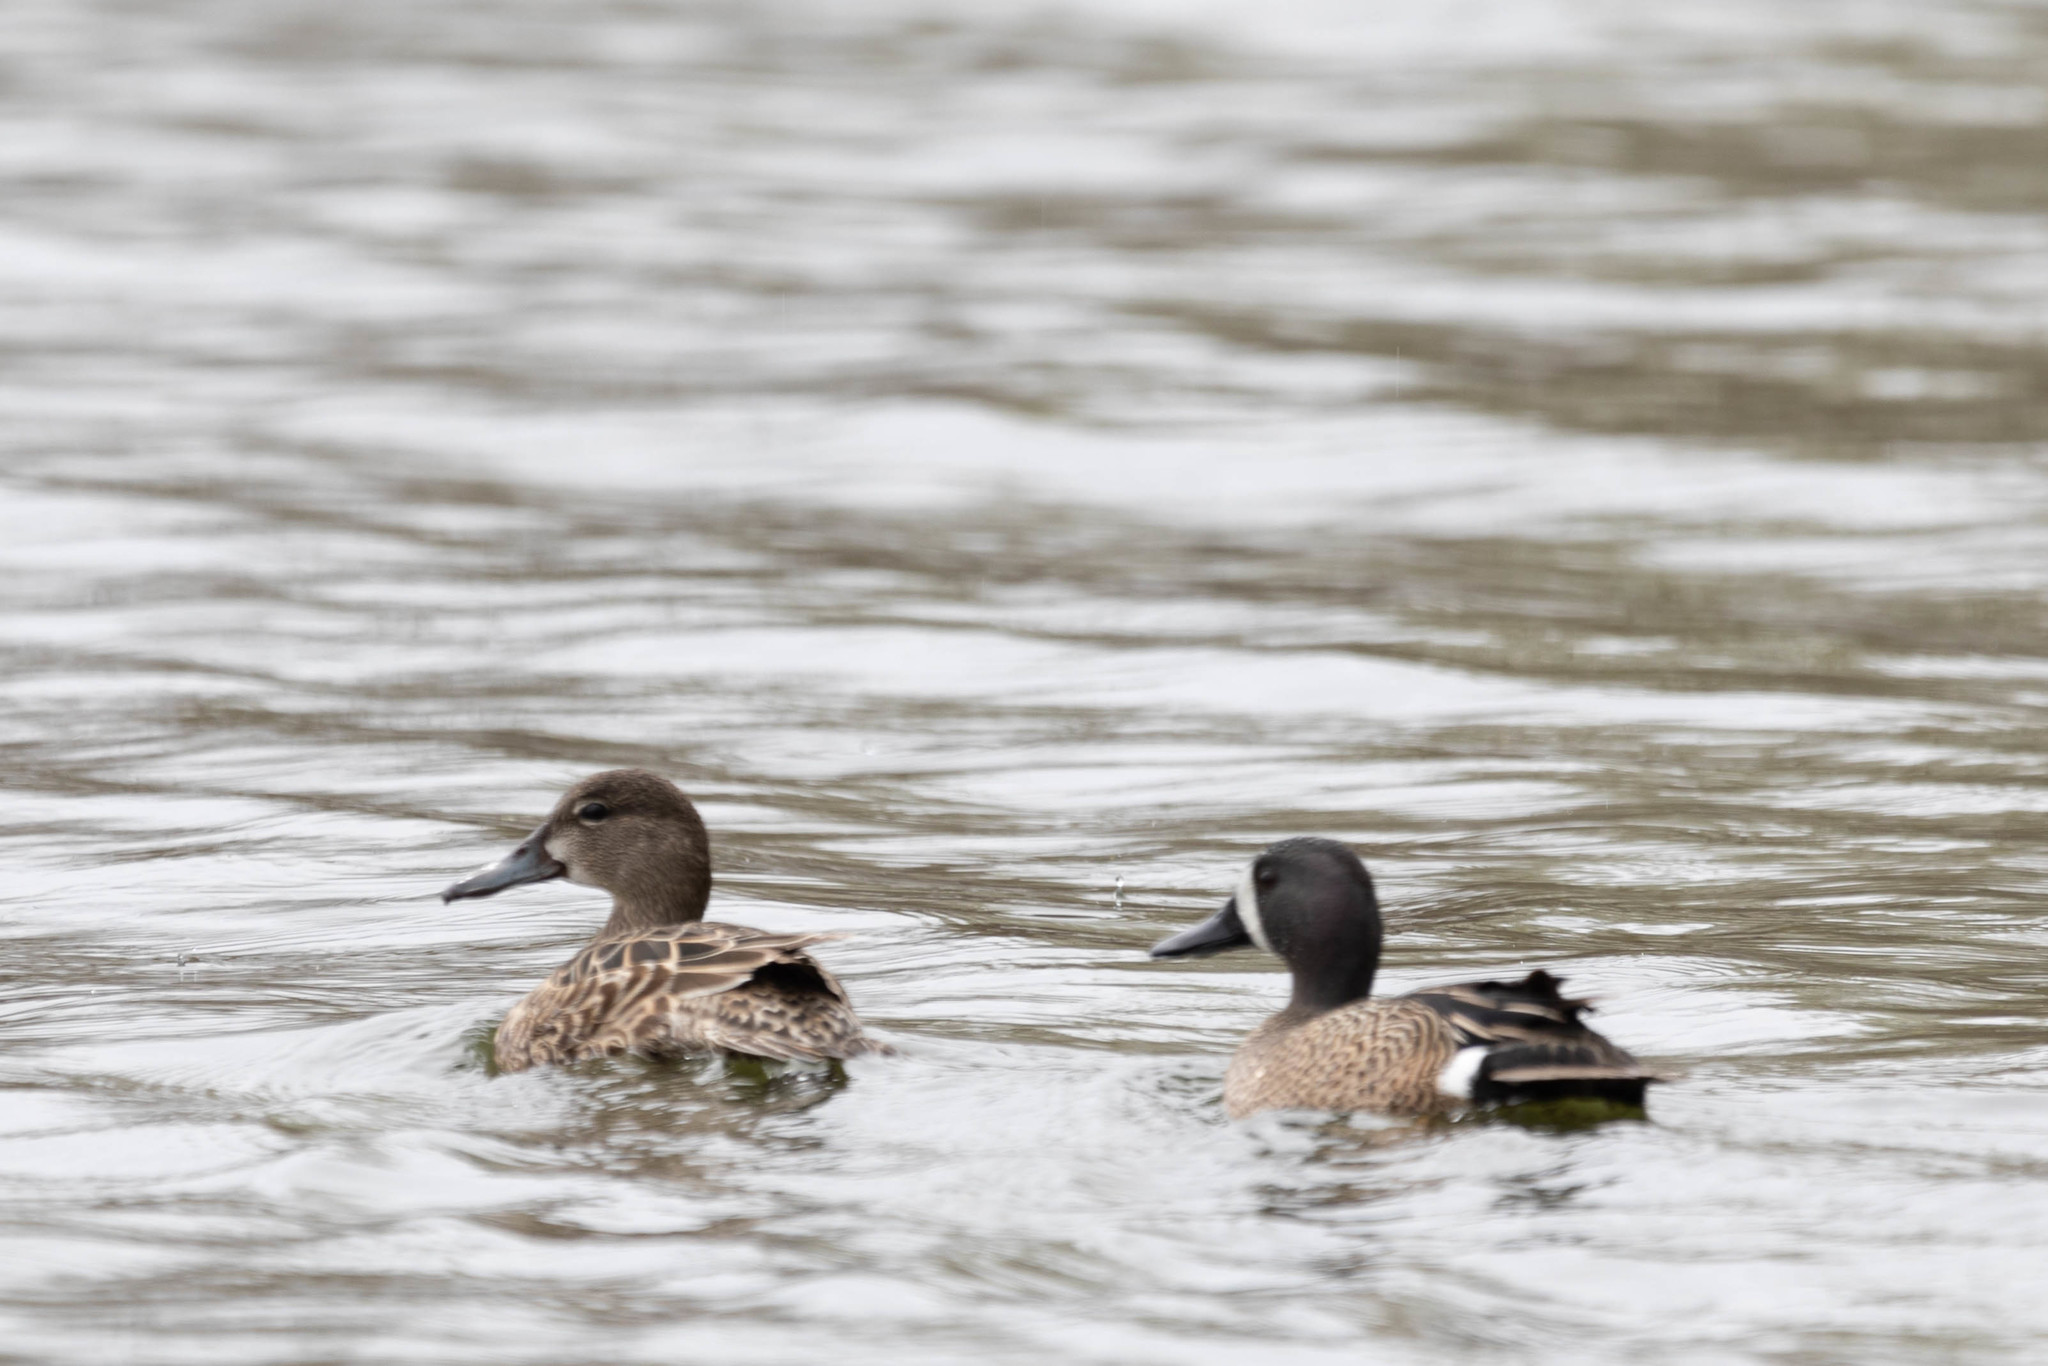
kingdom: Animalia
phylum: Chordata
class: Aves
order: Anseriformes
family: Anatidae
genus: Spatula
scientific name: Spatula discors
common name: Blue-winged teal
